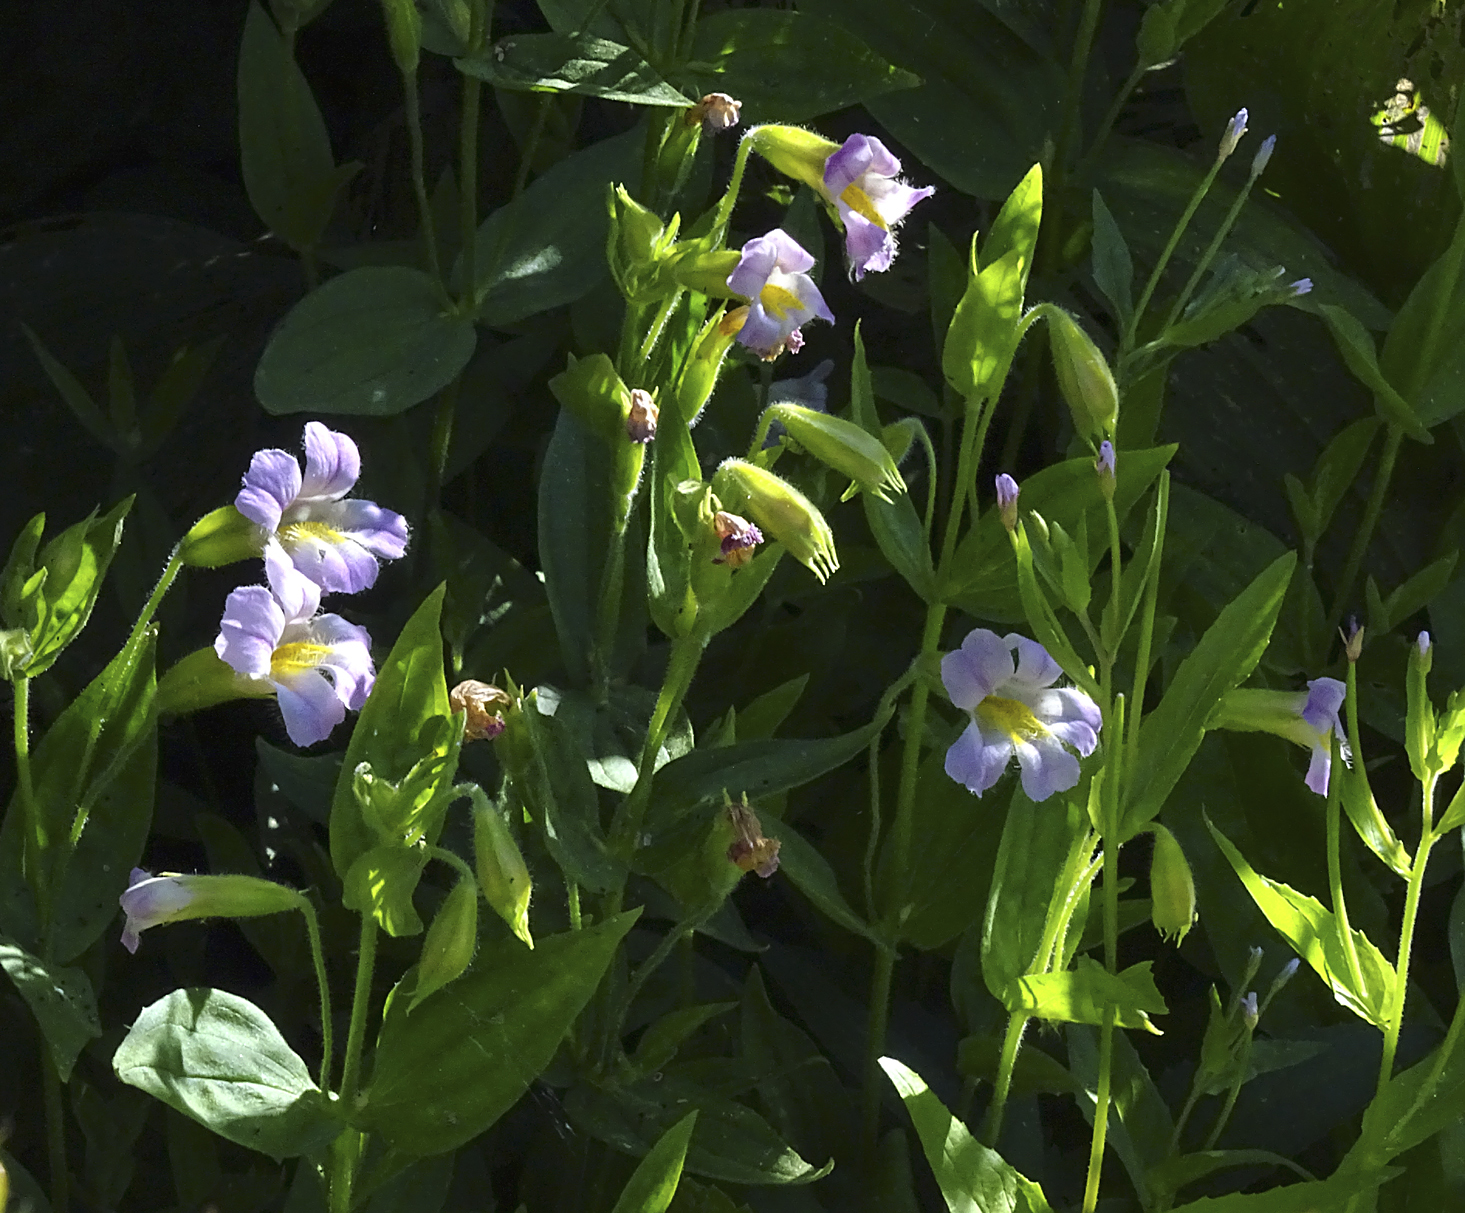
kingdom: Plantae
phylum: Tracheophyta
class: Magnoliopsida
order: Lamiales
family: Phrymaceae
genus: Erythranthe
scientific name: Erythranthe erubescens
